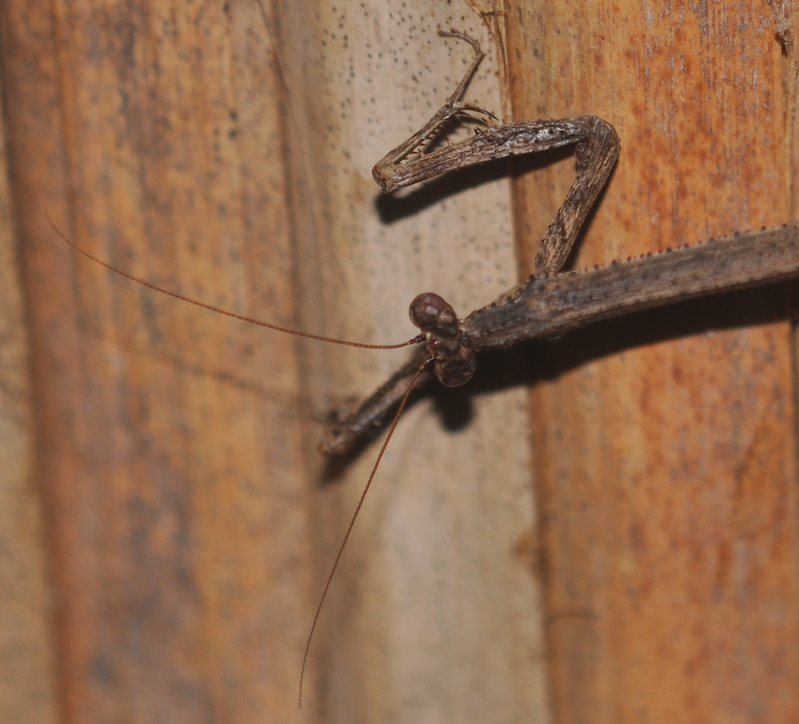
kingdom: Animalia
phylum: Arthropoda
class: Insecta
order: Mantodea
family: Deroplatyidae
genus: Popa
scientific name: Popa spurca
